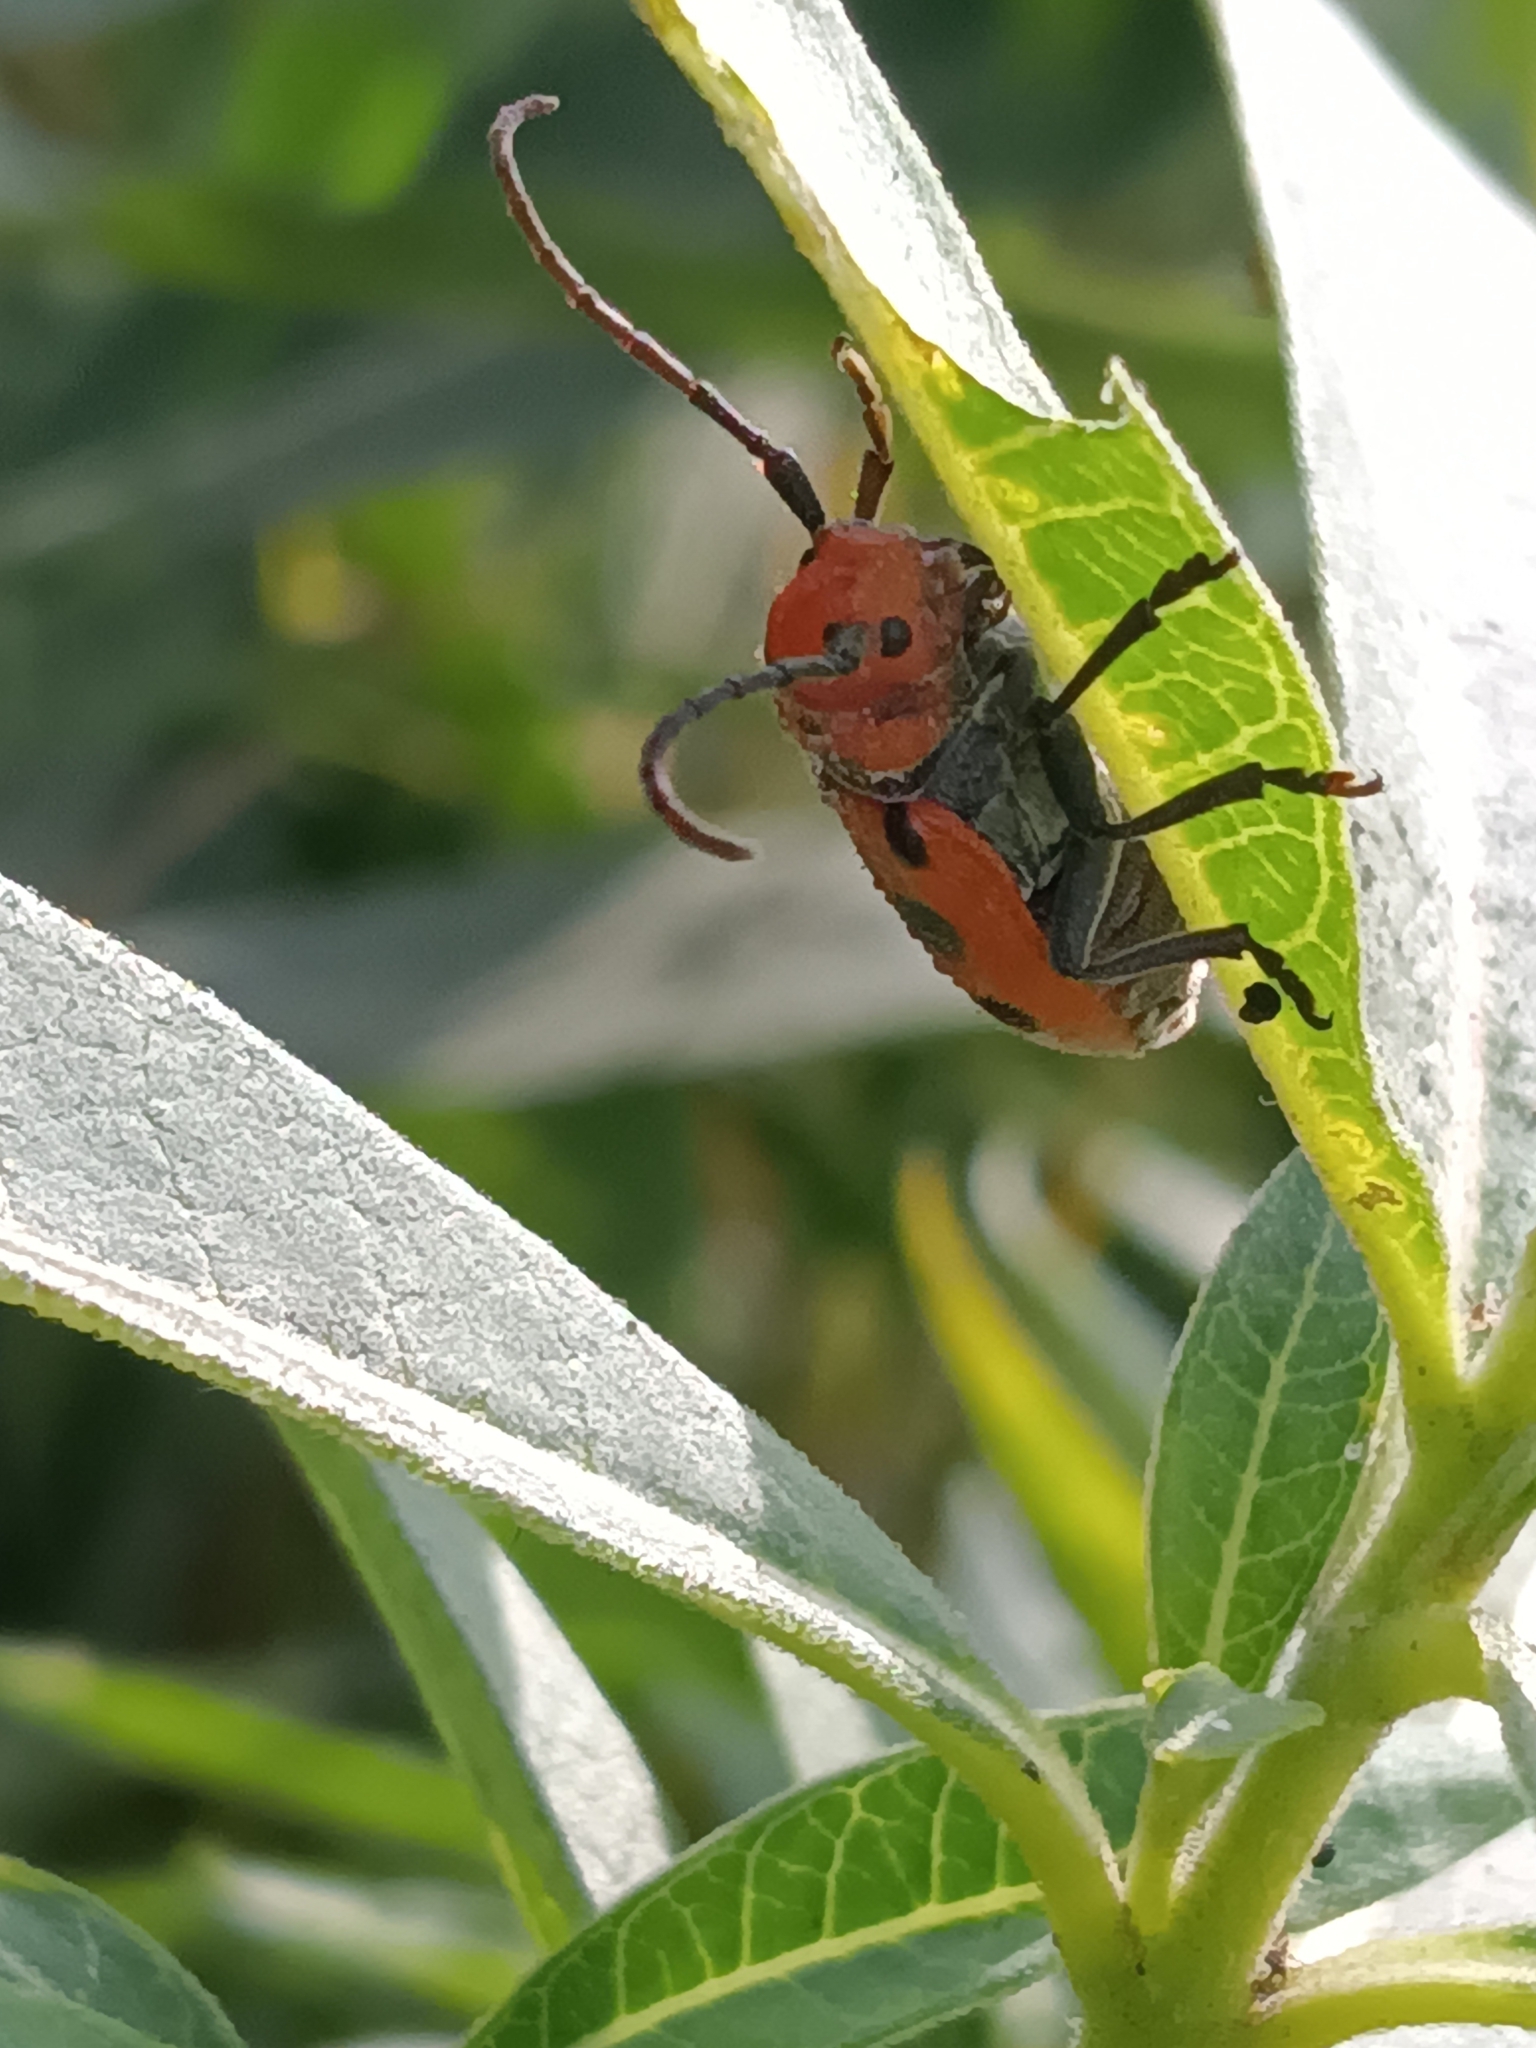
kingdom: Animalia
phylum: Arthropoda
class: Insecta
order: Coleoptera
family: Cerambycidae
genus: Tetraopes
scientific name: Tetraopes tetrophthalmus
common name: Red milkweed beetle
